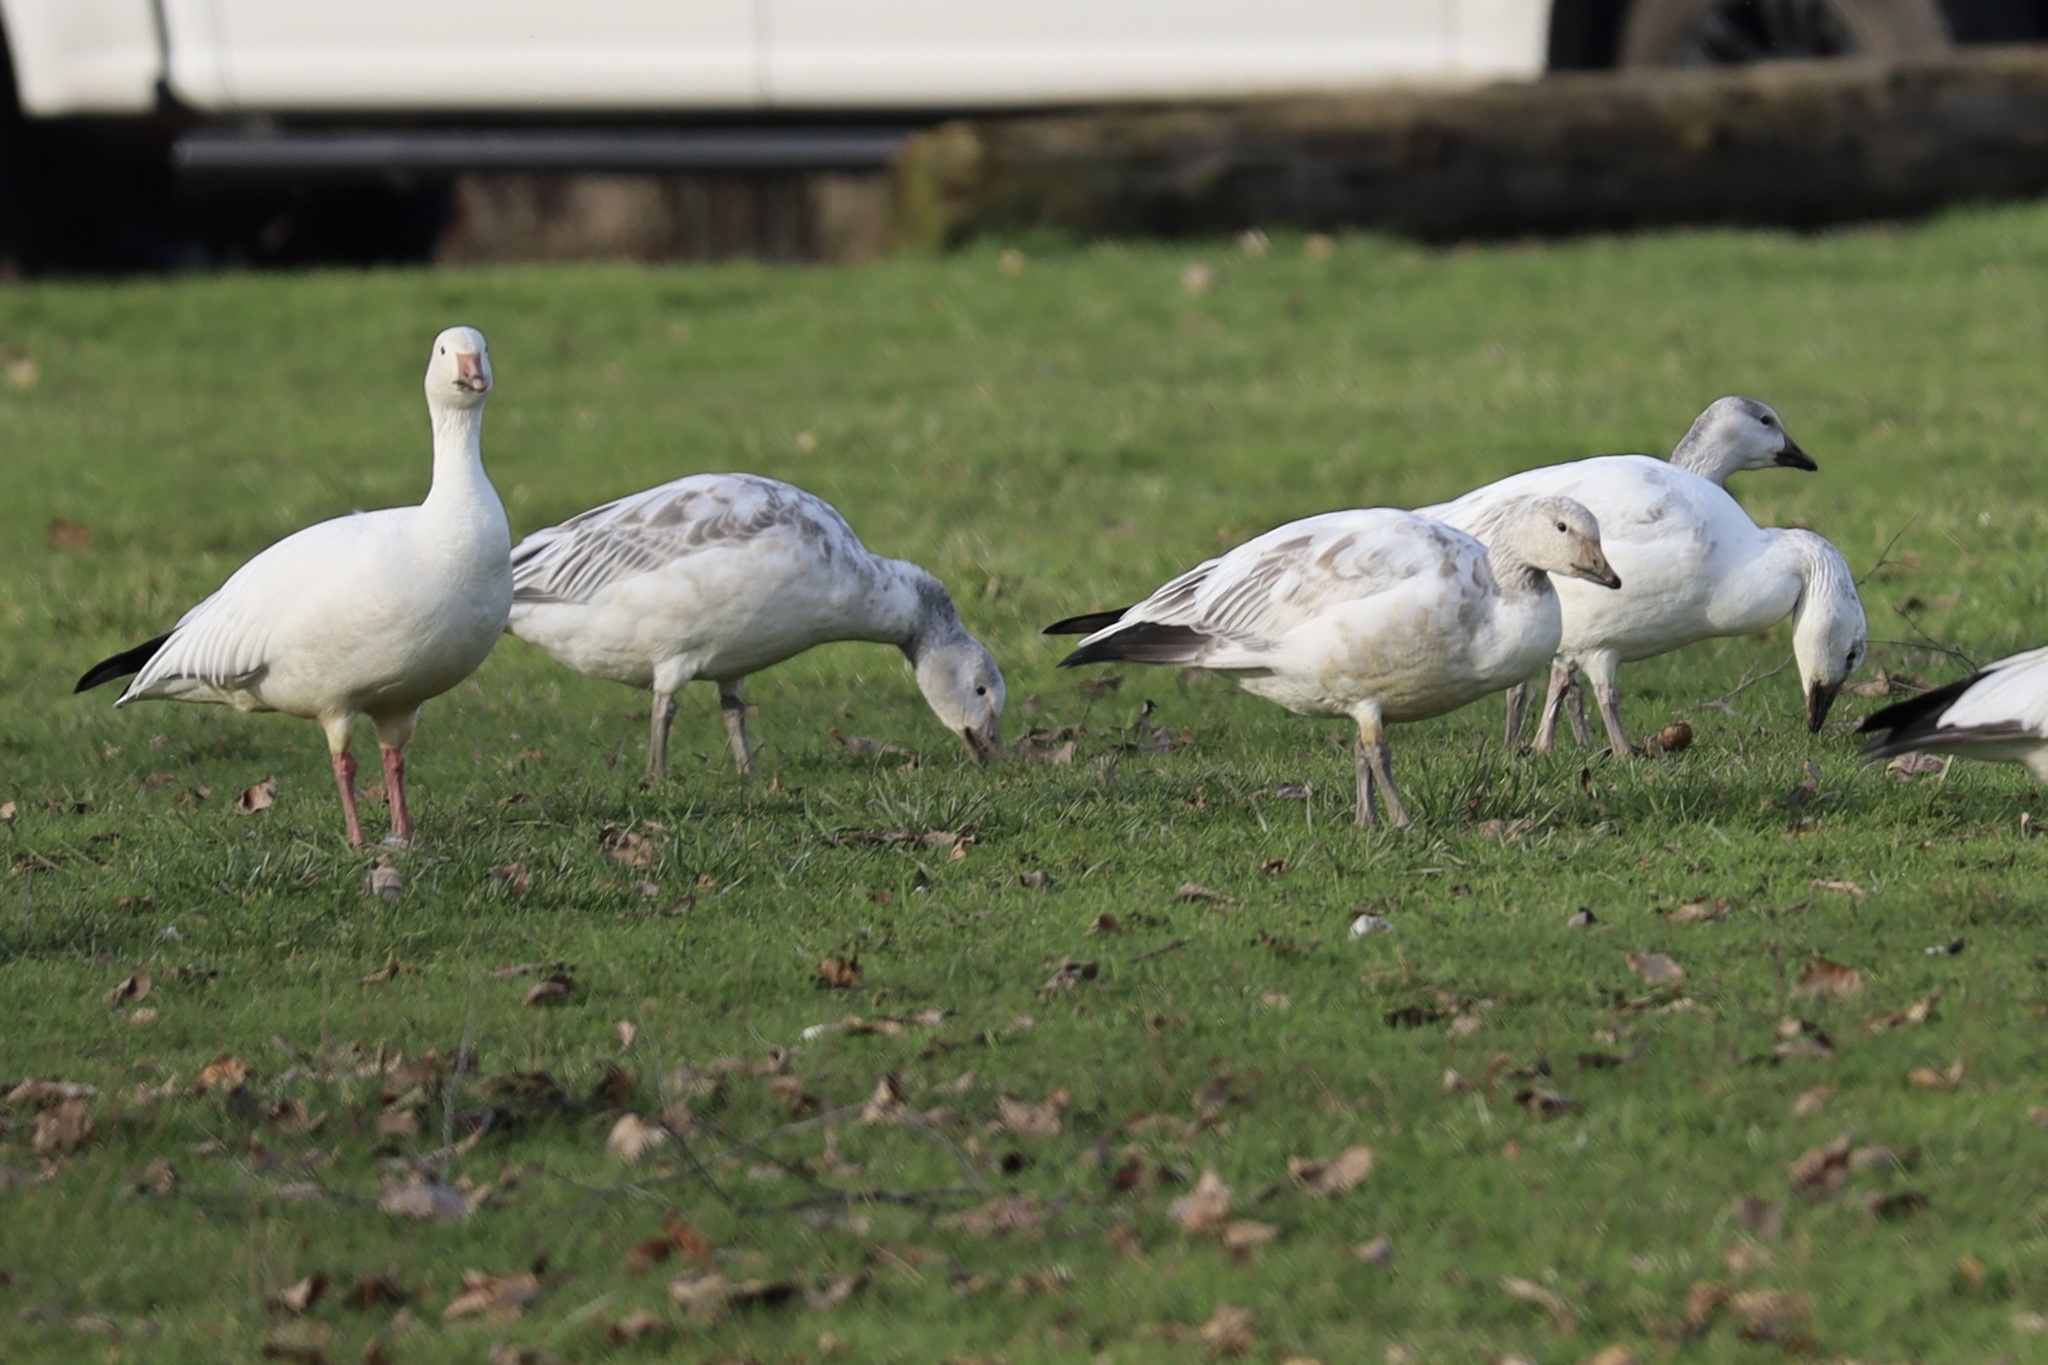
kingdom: Animalia
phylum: Chordata
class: Aves
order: Anseriformes
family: Anatidae
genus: Anser
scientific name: Anser caerulescens
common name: Snow goose
